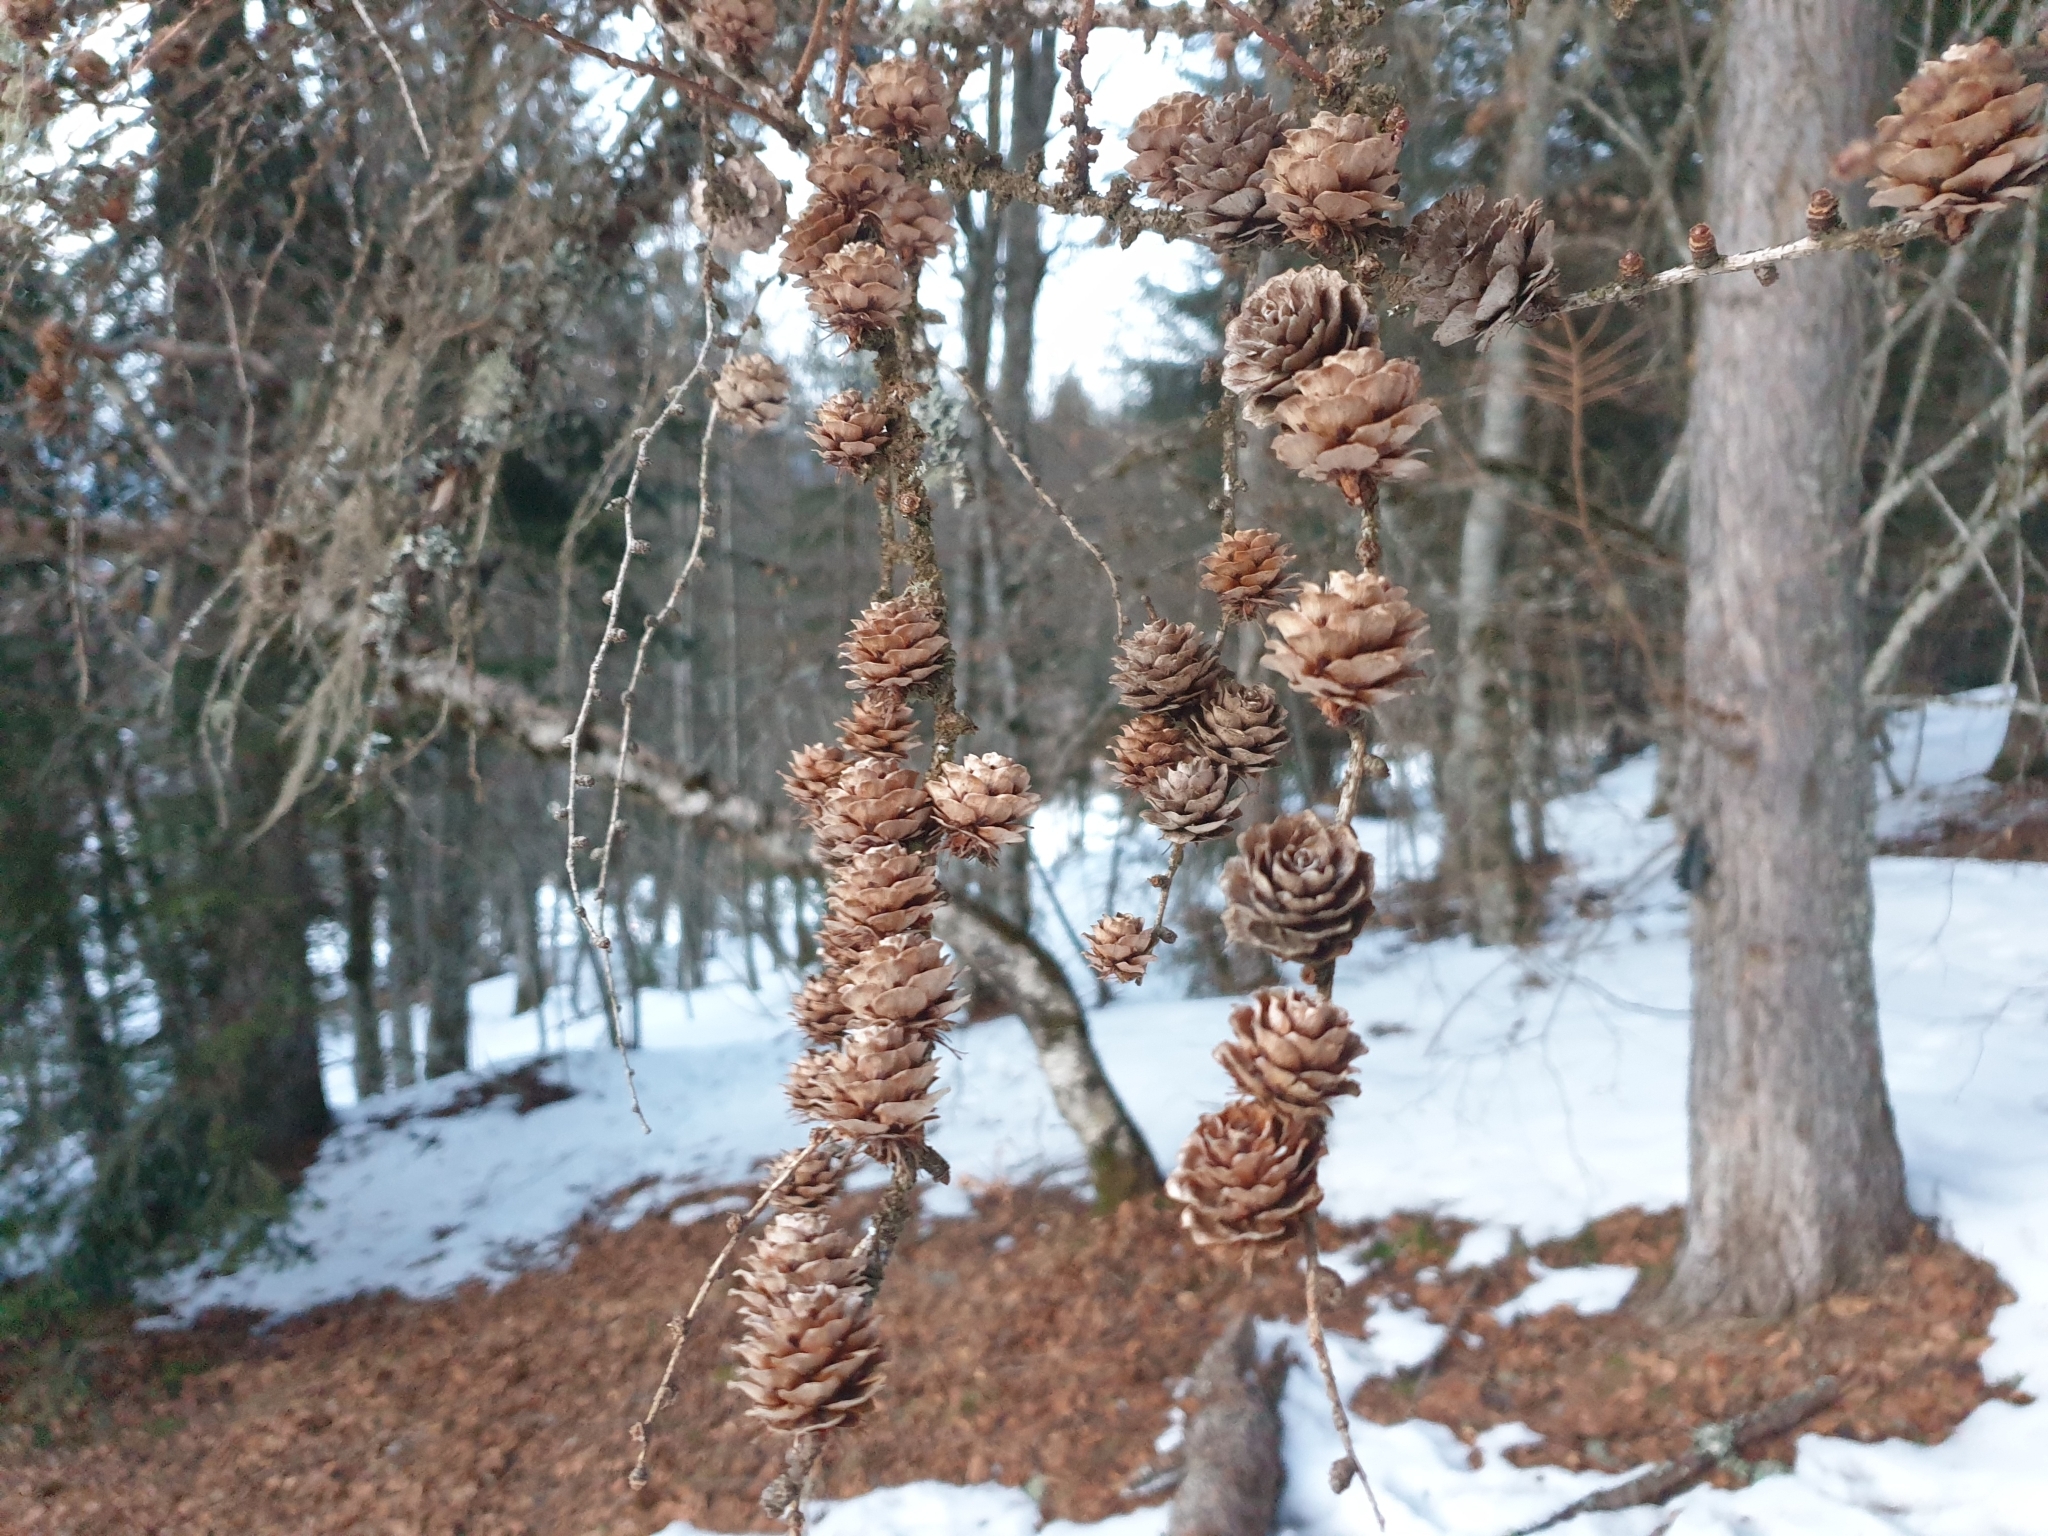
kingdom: Plantae
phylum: Tracheophyta
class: Pinopsida
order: Pinales
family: Pinaceae
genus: Larix
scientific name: Larix decidua
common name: European larch
